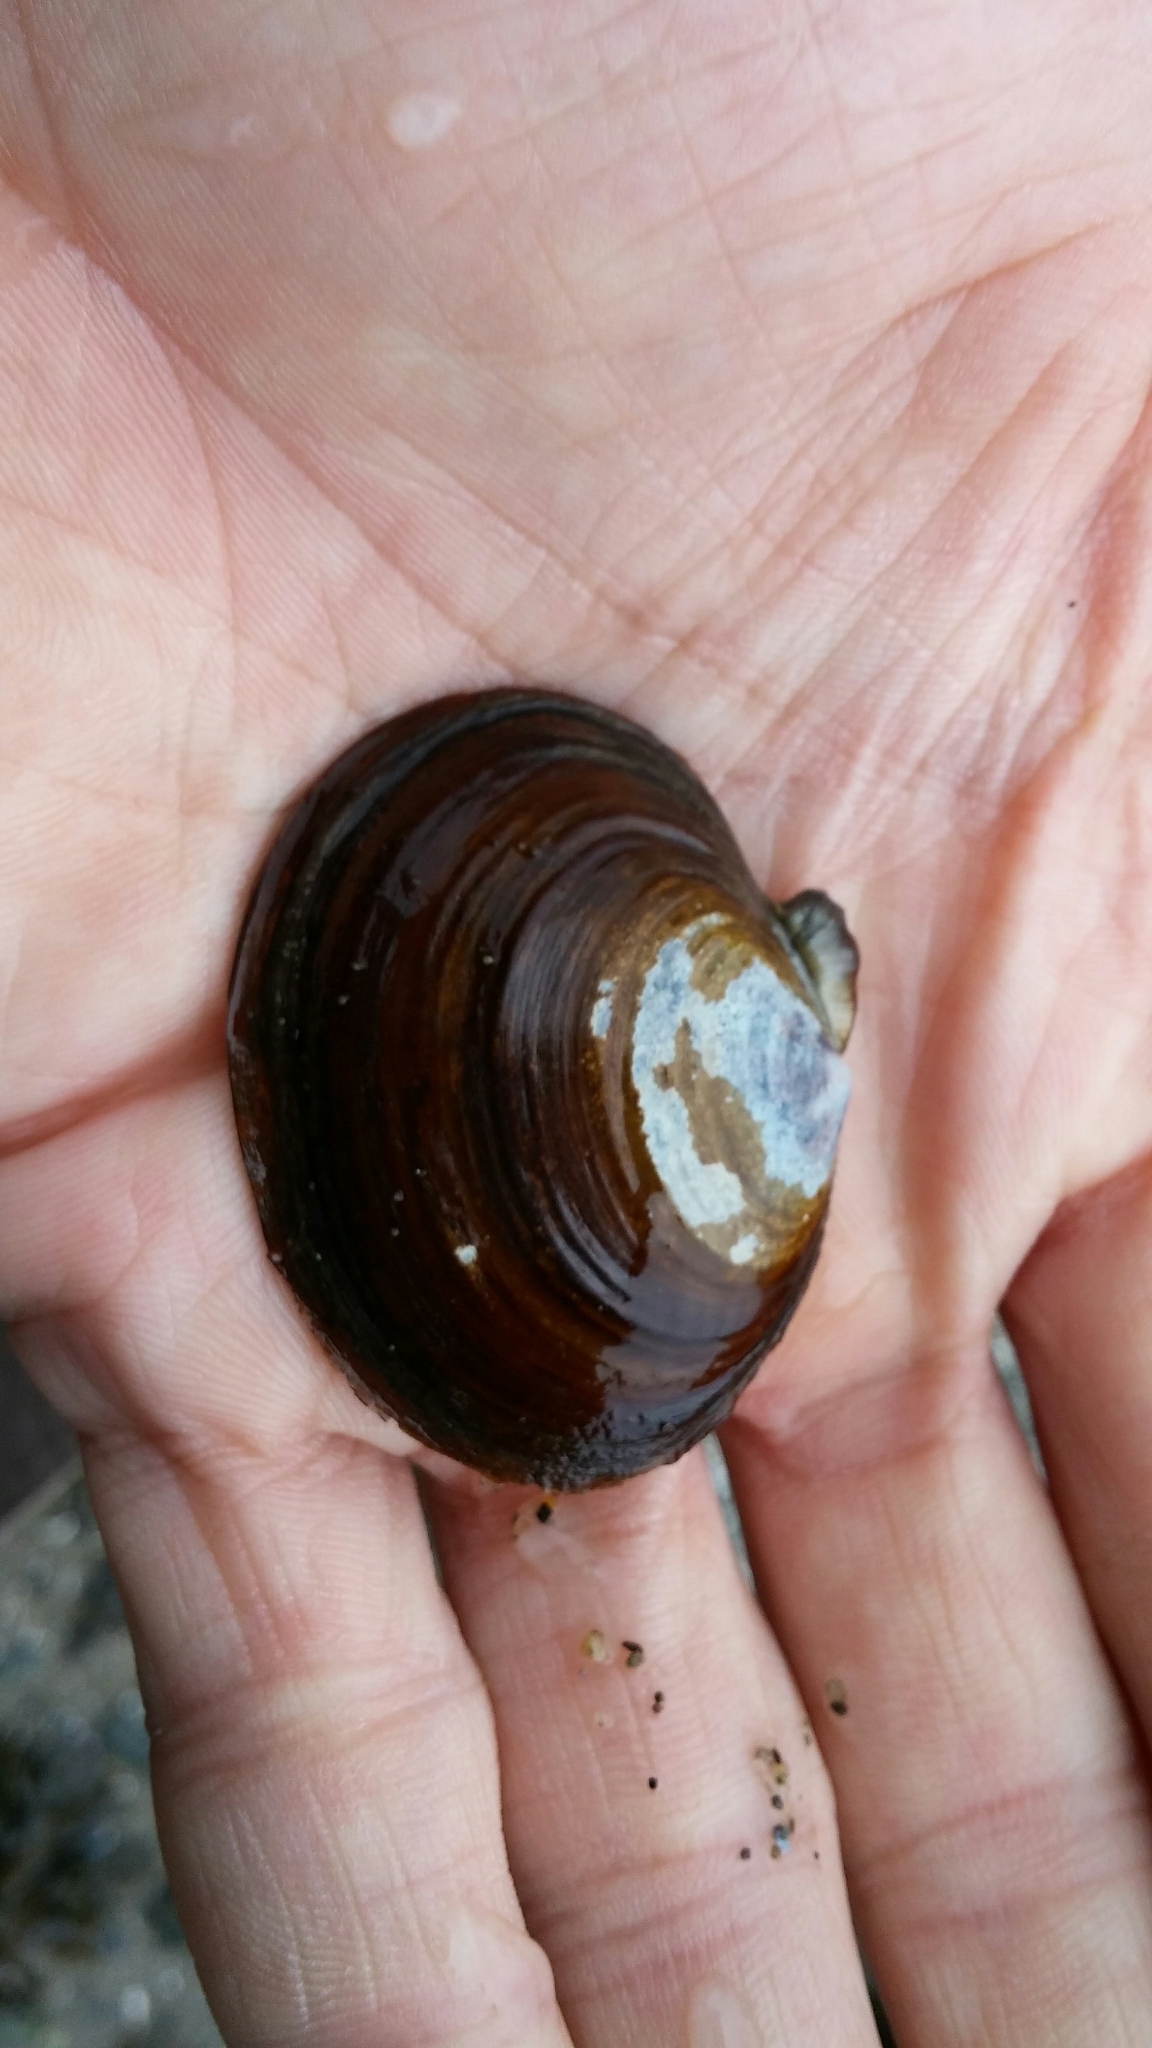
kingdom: Animalia
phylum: Mollusca
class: Bivalvia
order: Cardiida
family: Psammobiidae
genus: Nuttallia
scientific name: Nuttallia obscurata
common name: Purple mahogany-clam
